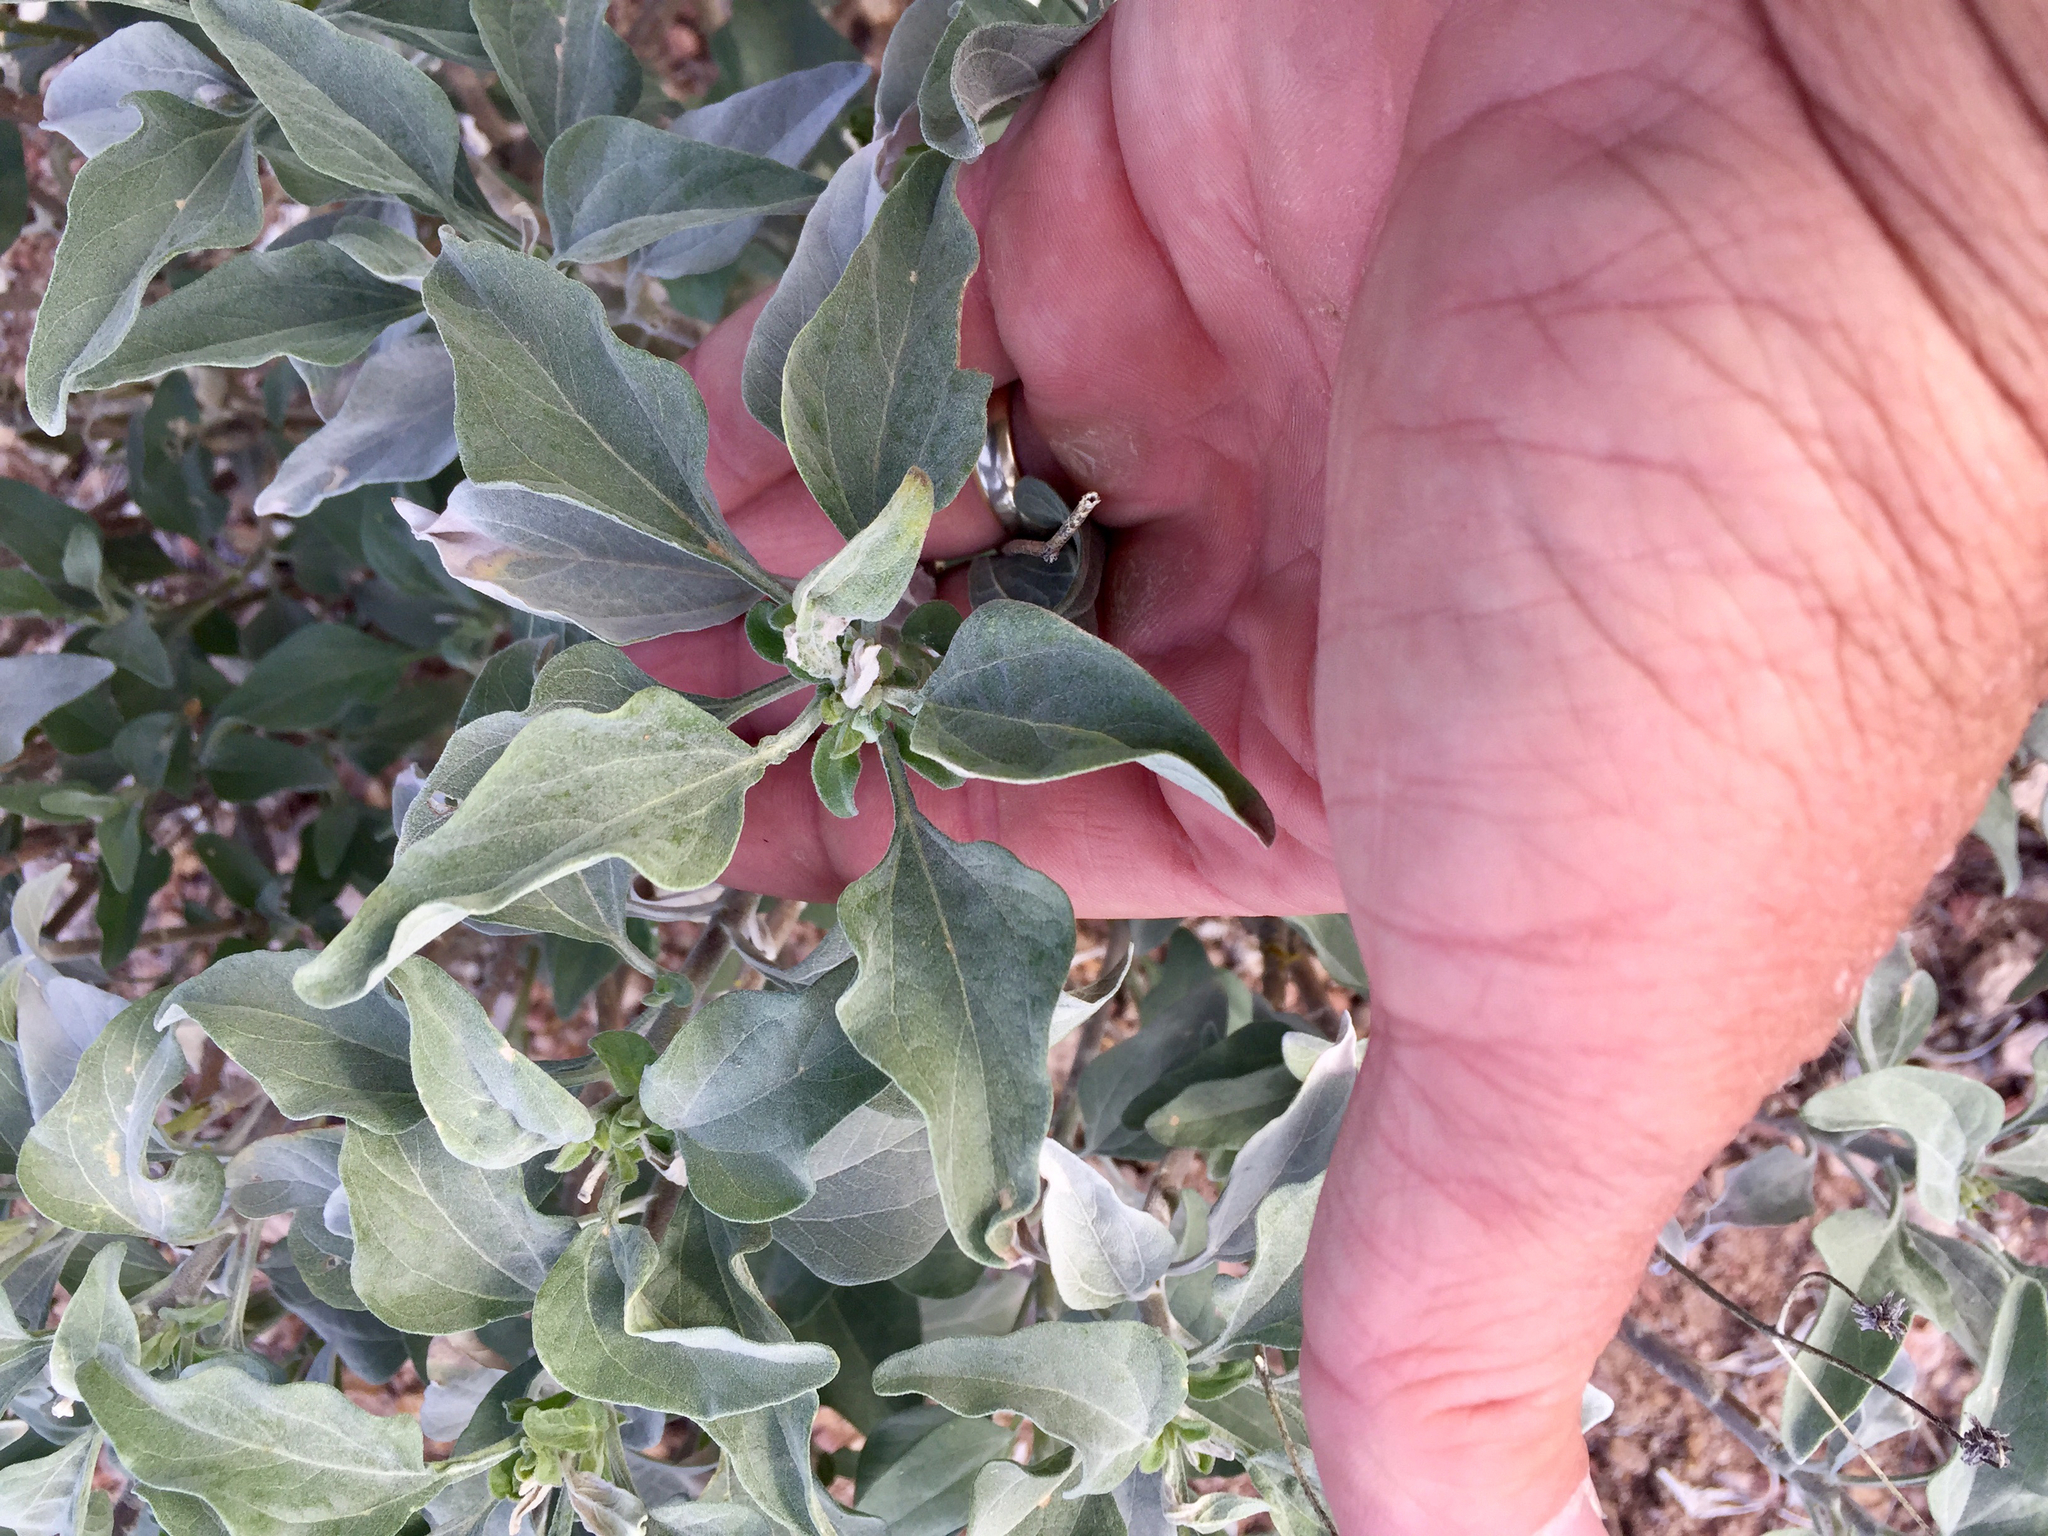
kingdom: Plantae
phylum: Tracheophyta
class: Magnoliopsida
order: Asterales
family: Asteraceae
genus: Encelia
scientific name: Encelia farinosa
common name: Brittlebush
